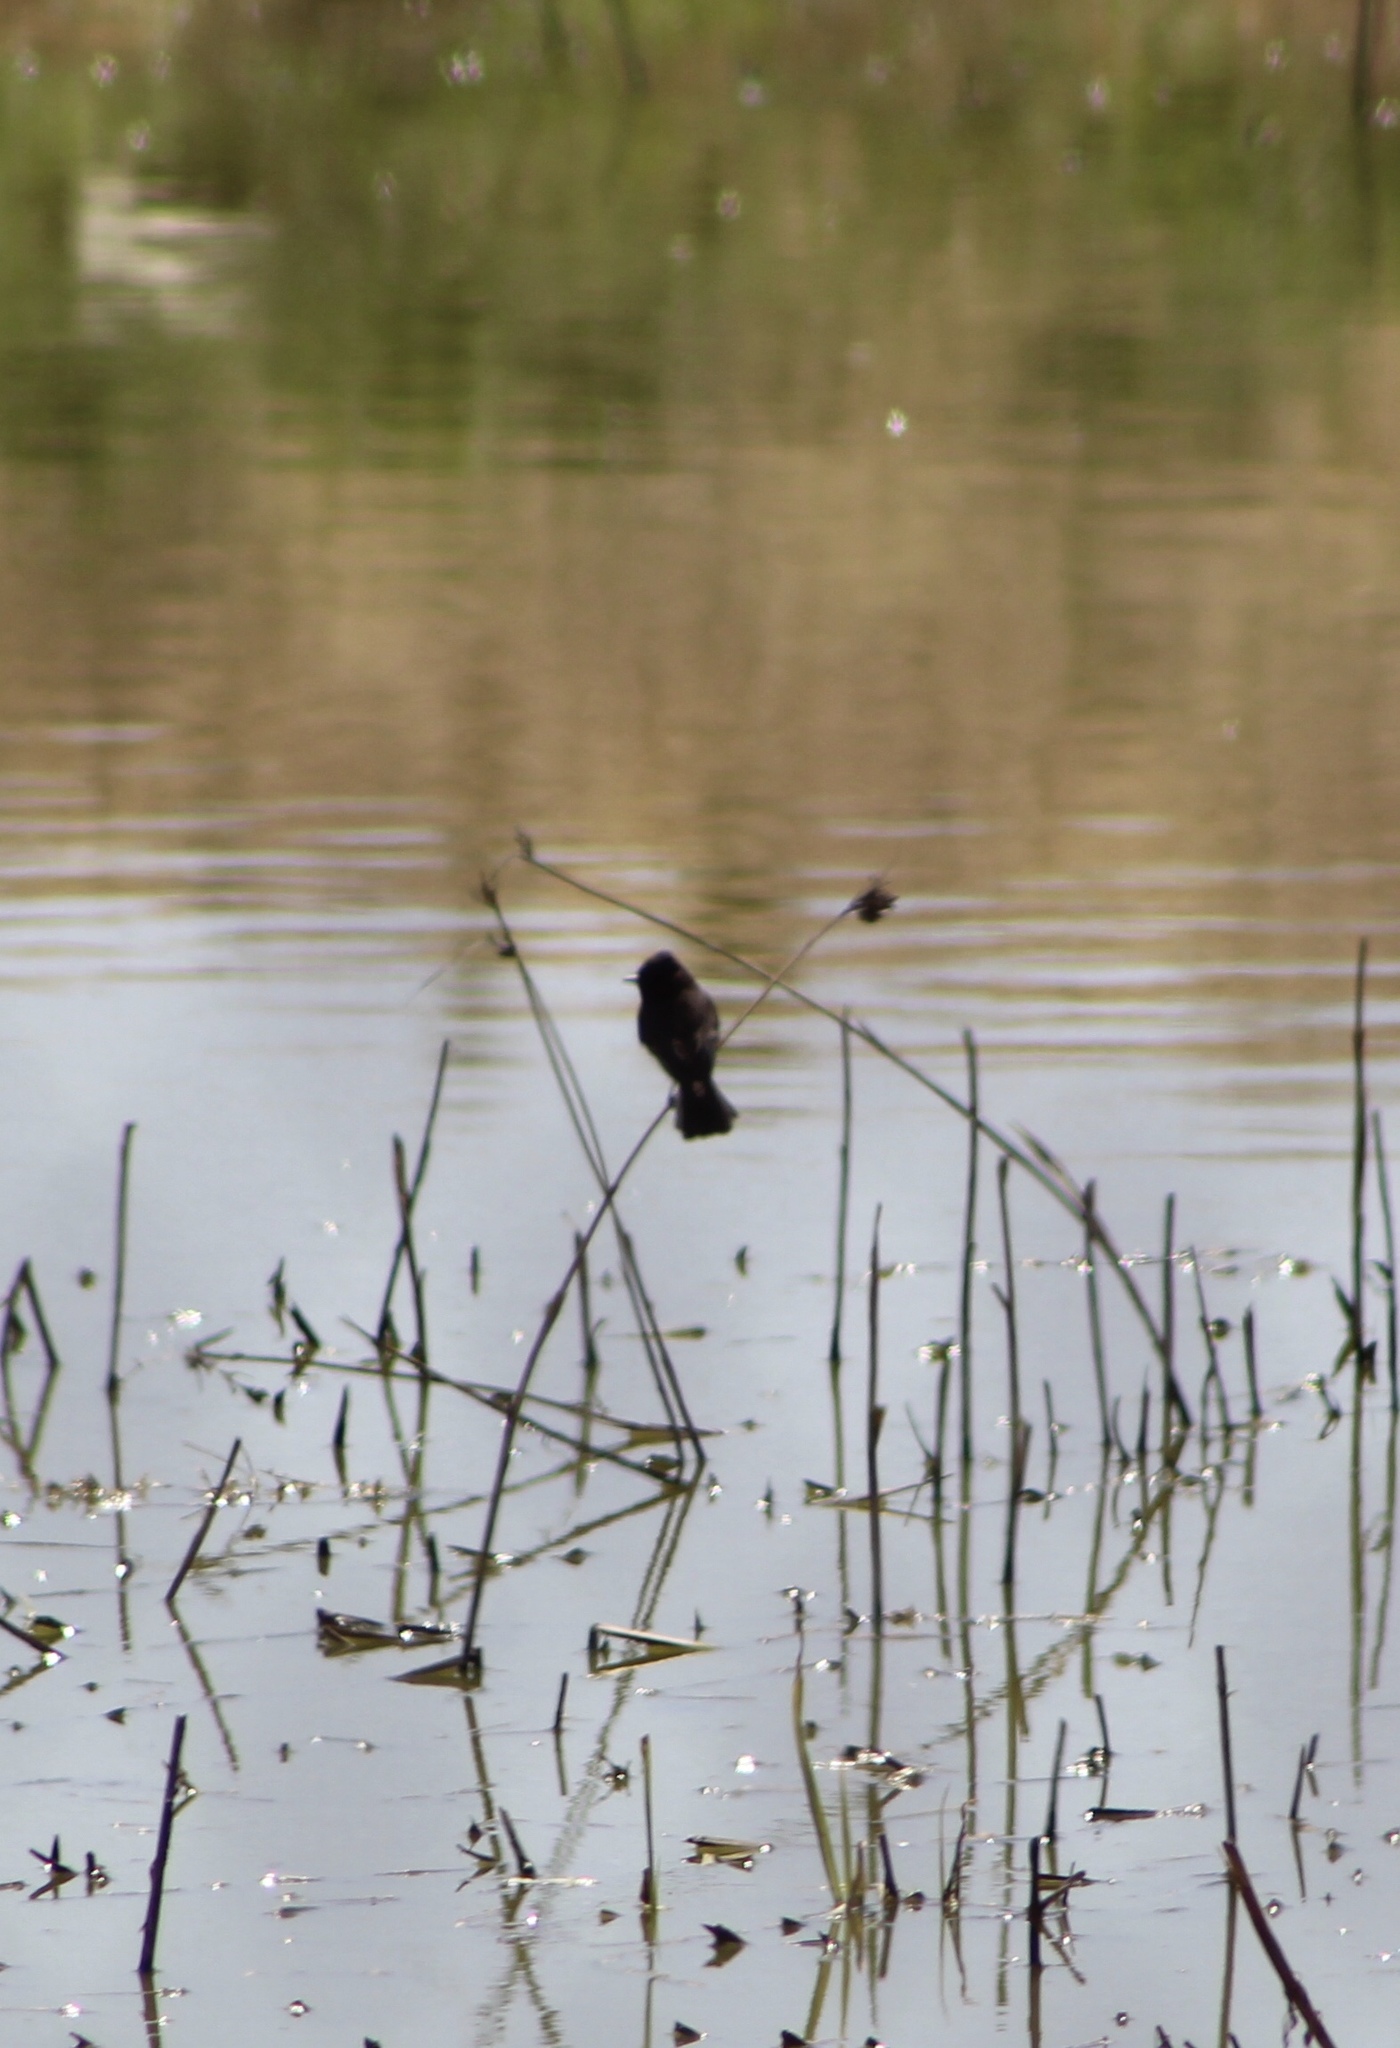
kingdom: Animalia
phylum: Chordata
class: Aves
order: Passeriformes
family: Tyrannidae
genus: Sayornis
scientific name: Sayornis nigricans
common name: Black phoebe
